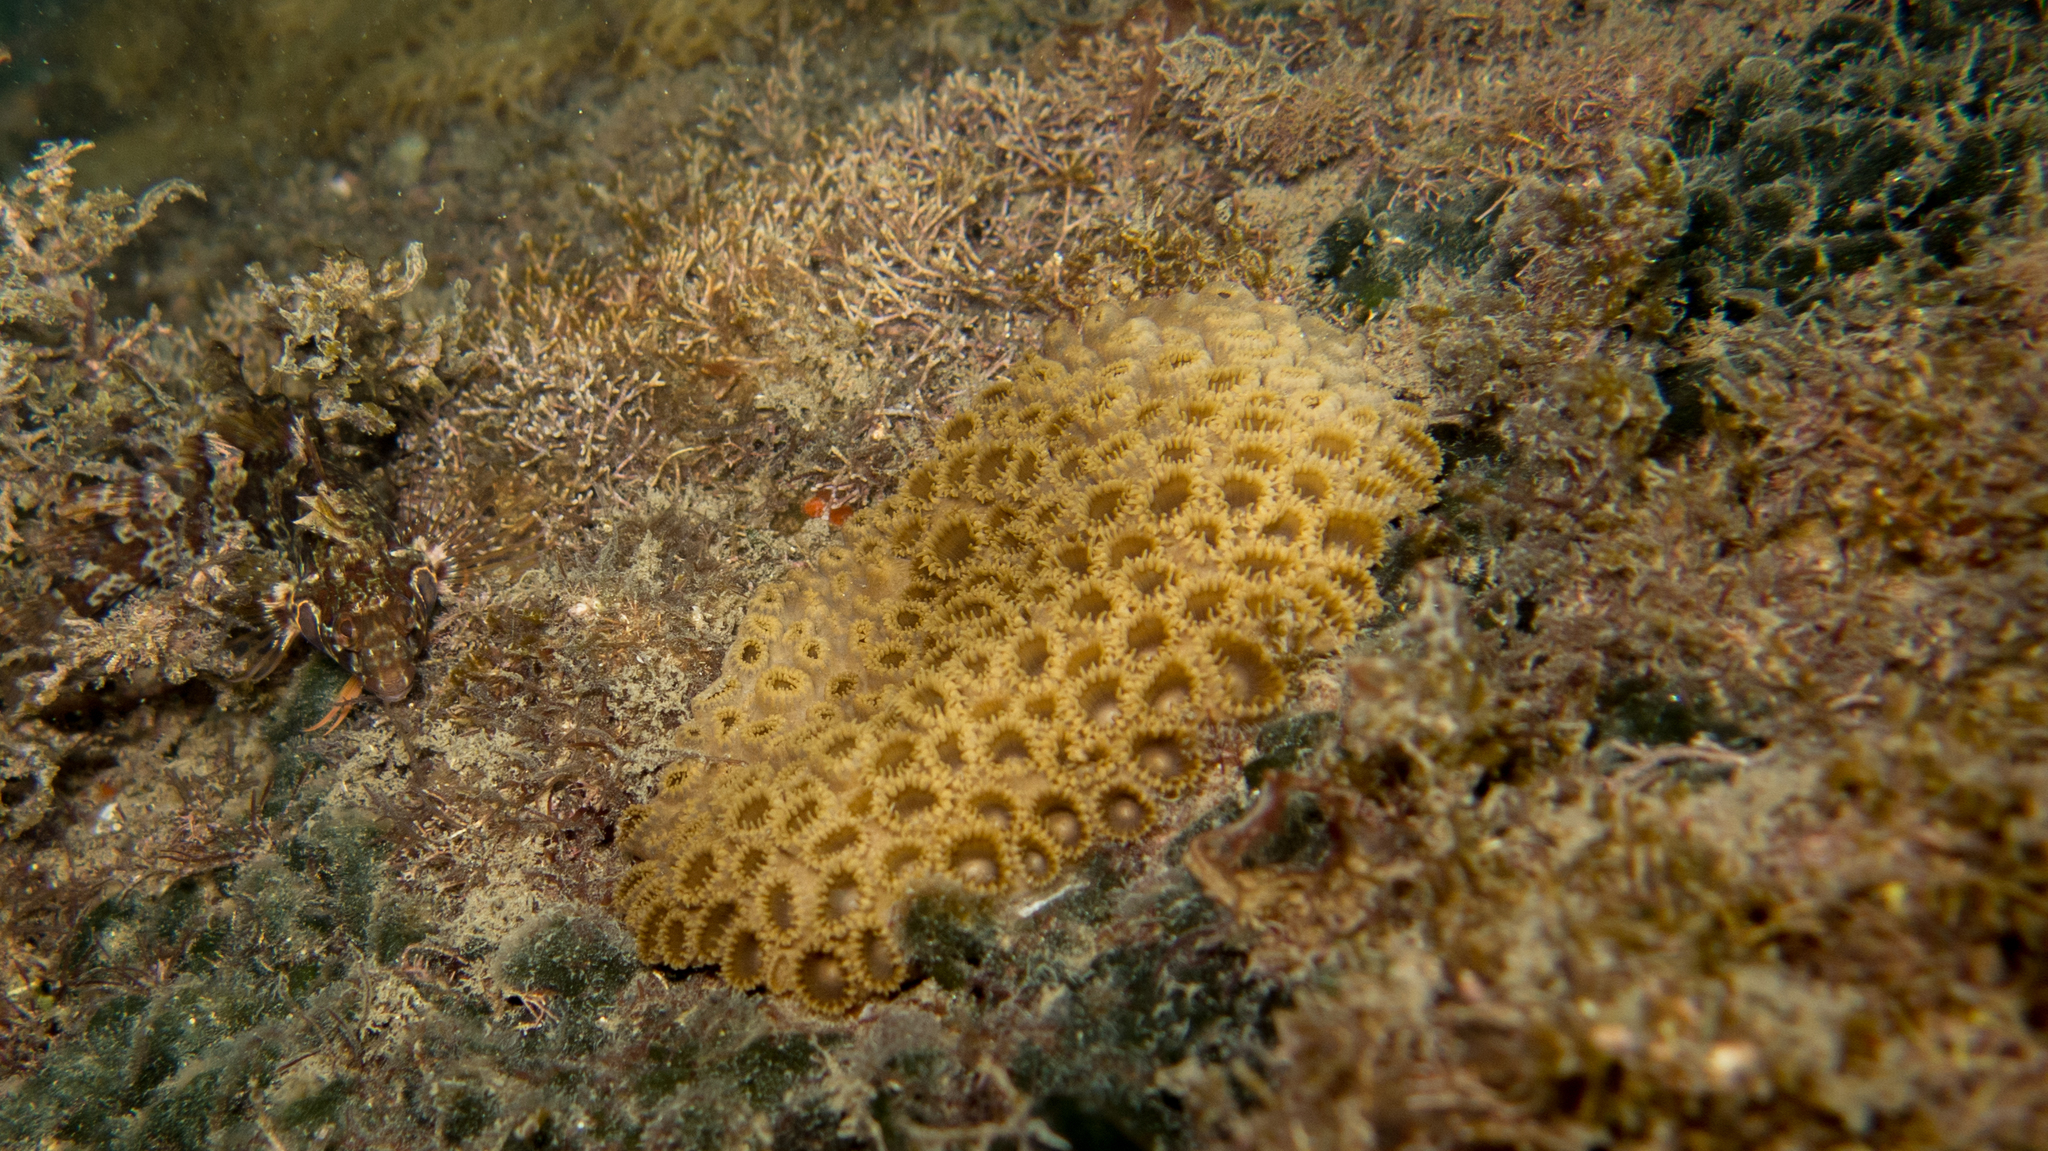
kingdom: Animalia
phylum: Cnidaria
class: Anthozoa
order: Zoantharia
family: Sphenopidae
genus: Palythoa
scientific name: Palythoa caribaeorum
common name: Encrusting colonial anemone
